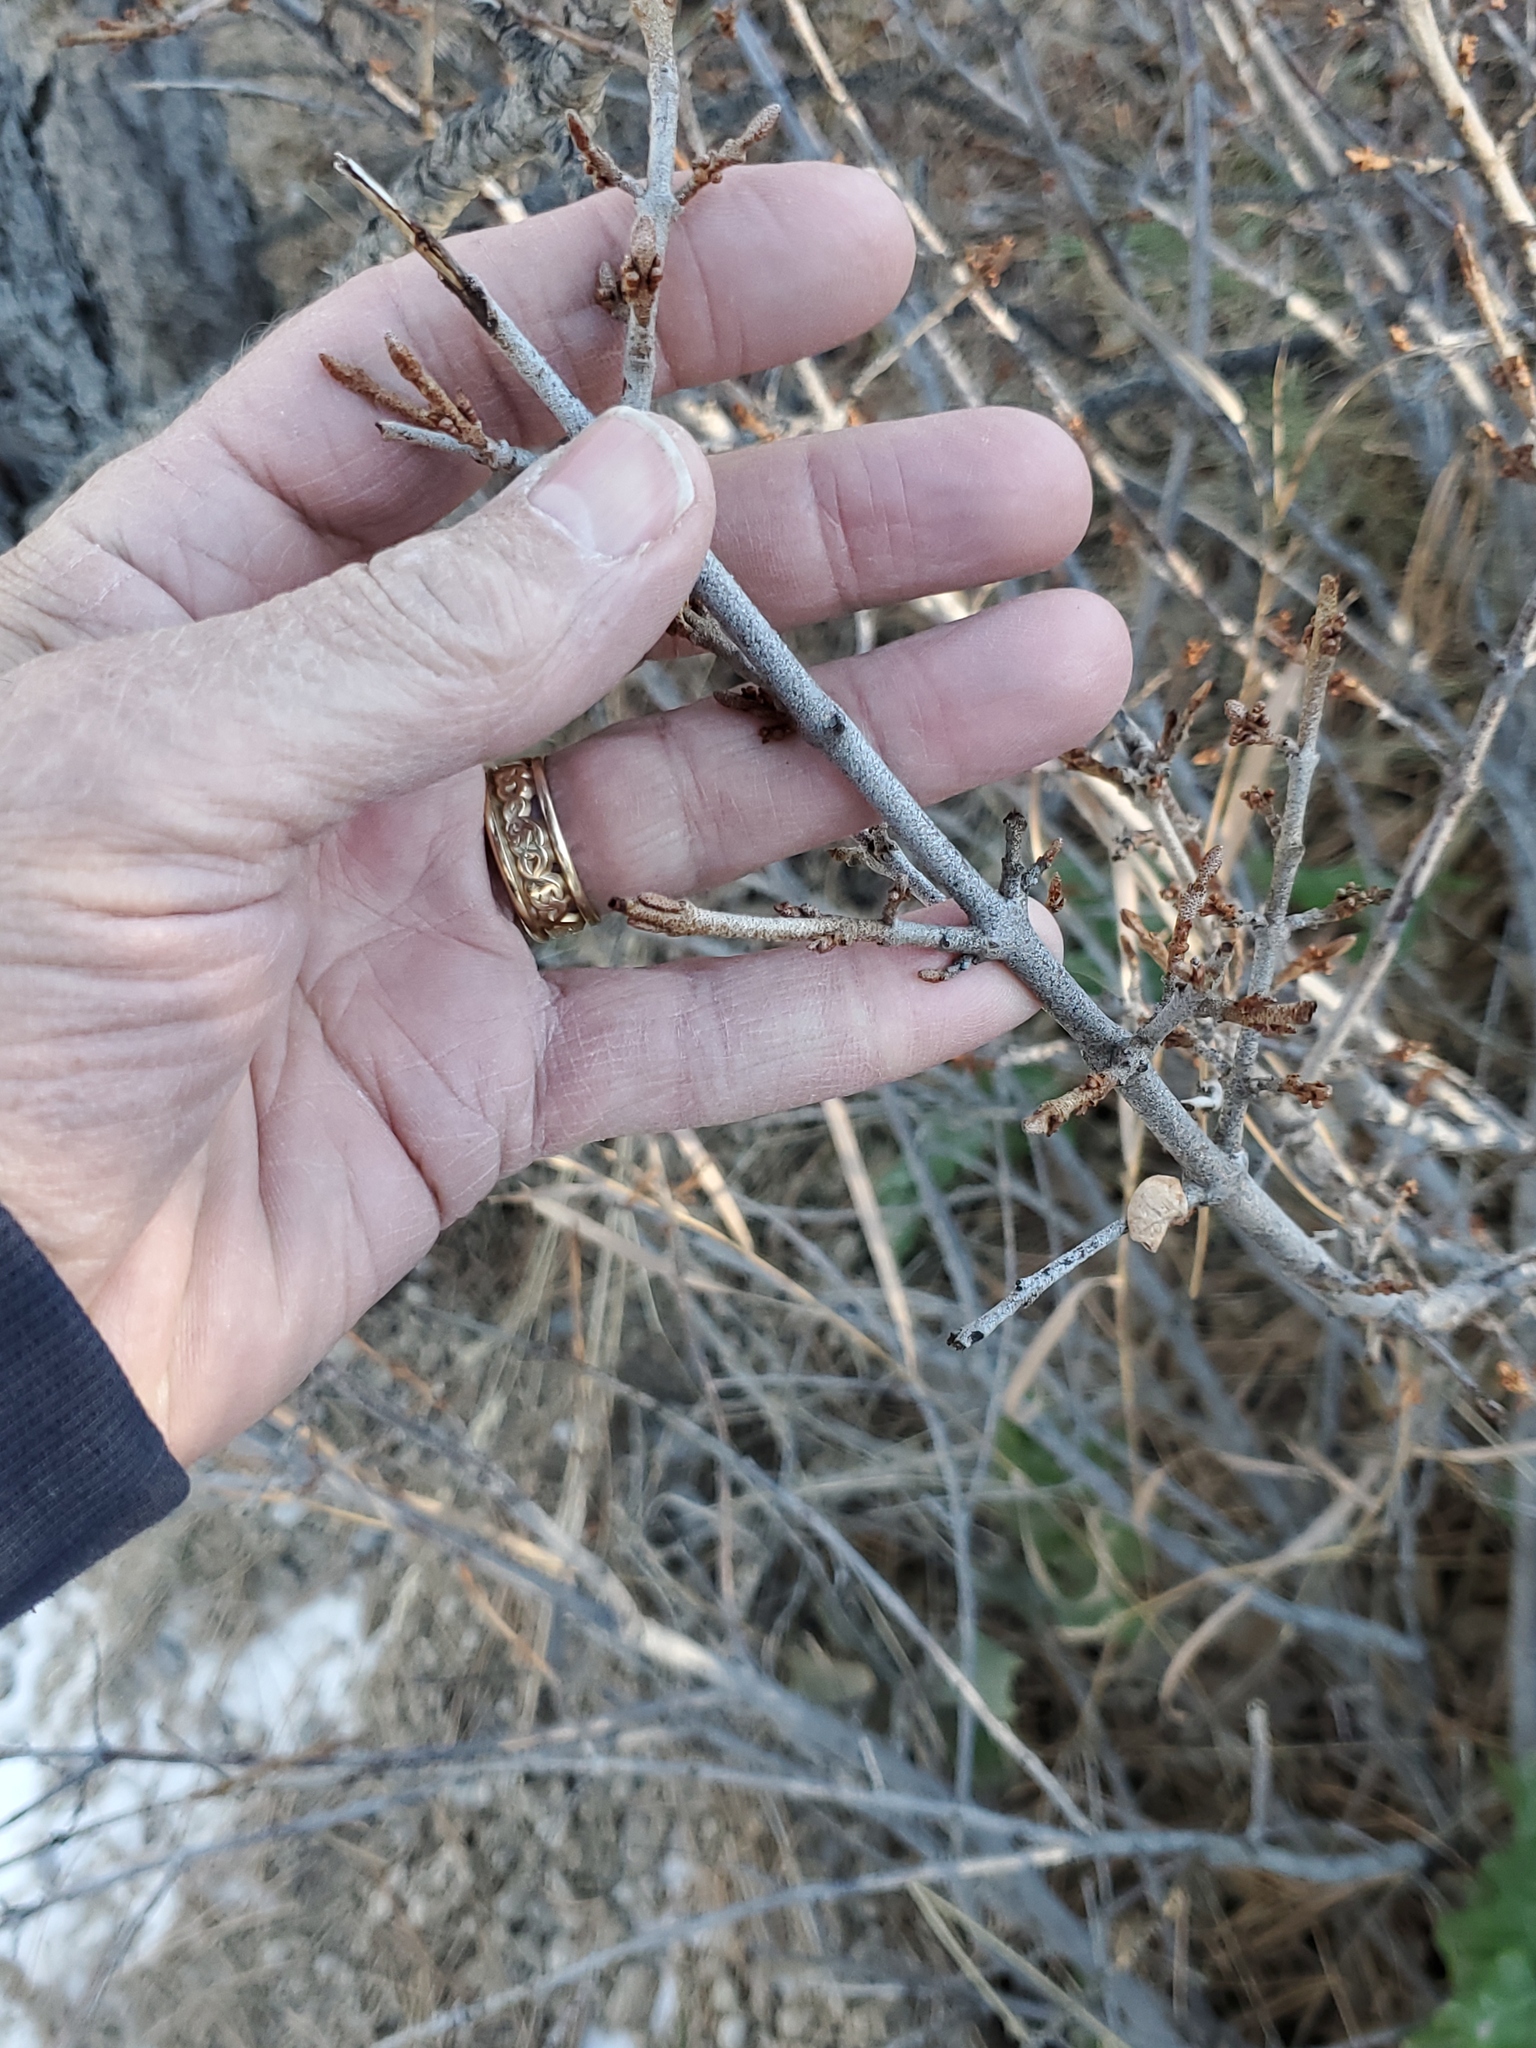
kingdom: Plantae
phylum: Tracheophyta
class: Magnoliopsida
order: Rosales
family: Elaeagnaceae
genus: Shepherdia
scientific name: Shepherdia canadensis
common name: Soapberry
